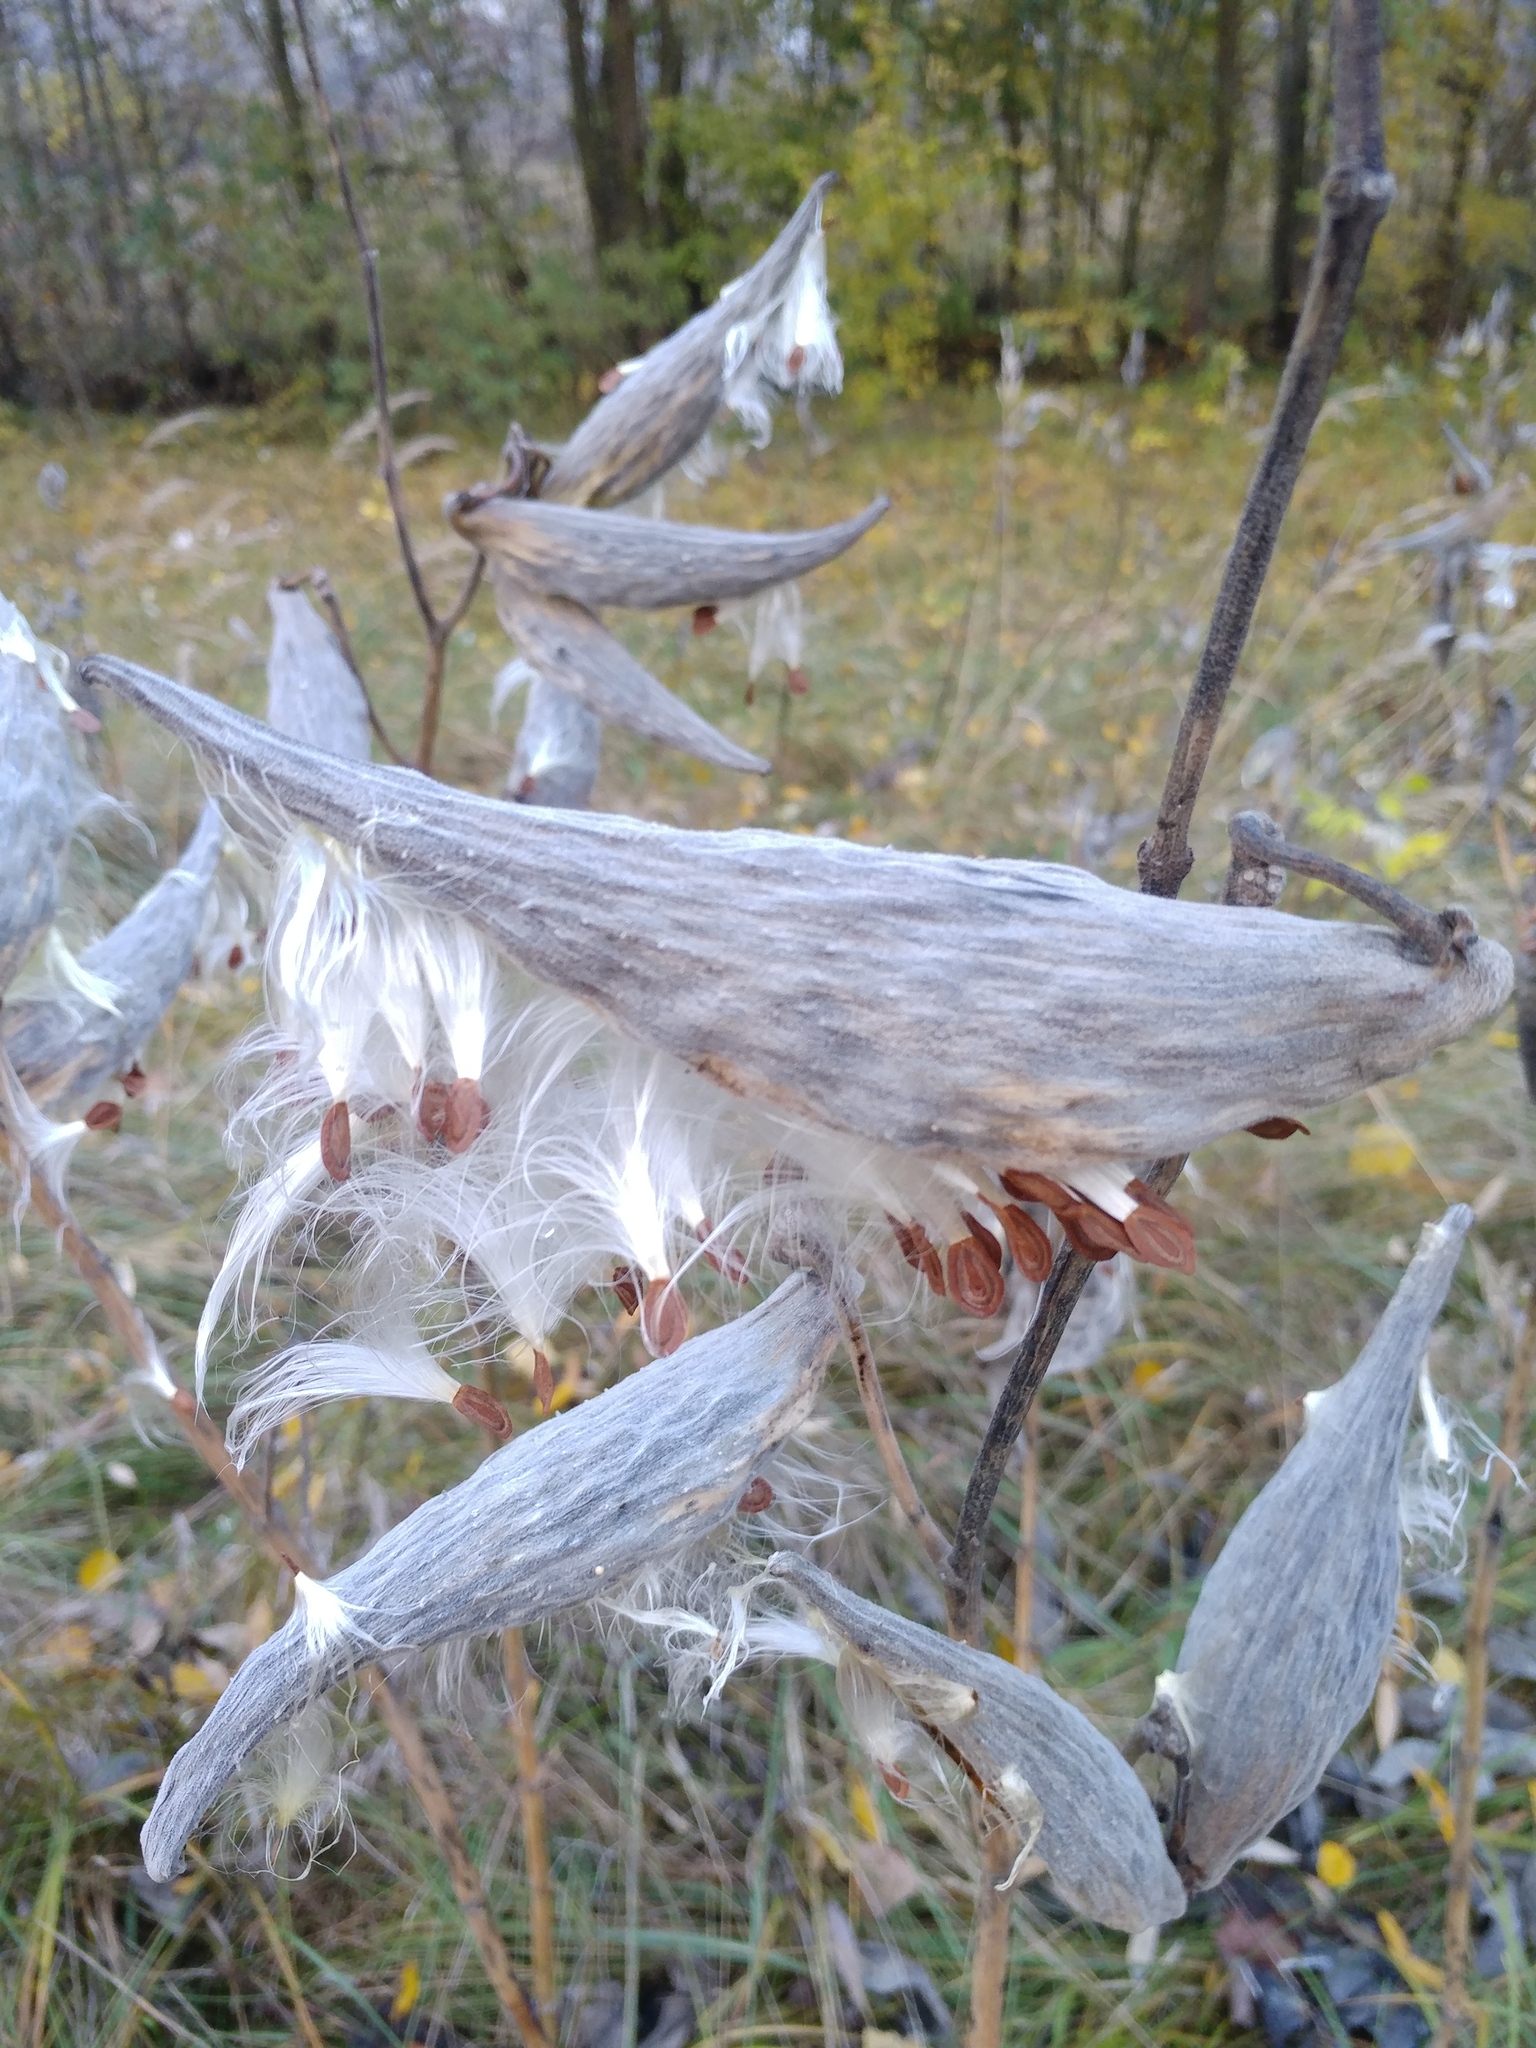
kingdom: Plantae
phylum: Tracheophyta
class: Magnoliopsida
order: Gentianales
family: Apocynaceae
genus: Asclepias
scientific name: Asclepias syriaca
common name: Common milkweed
